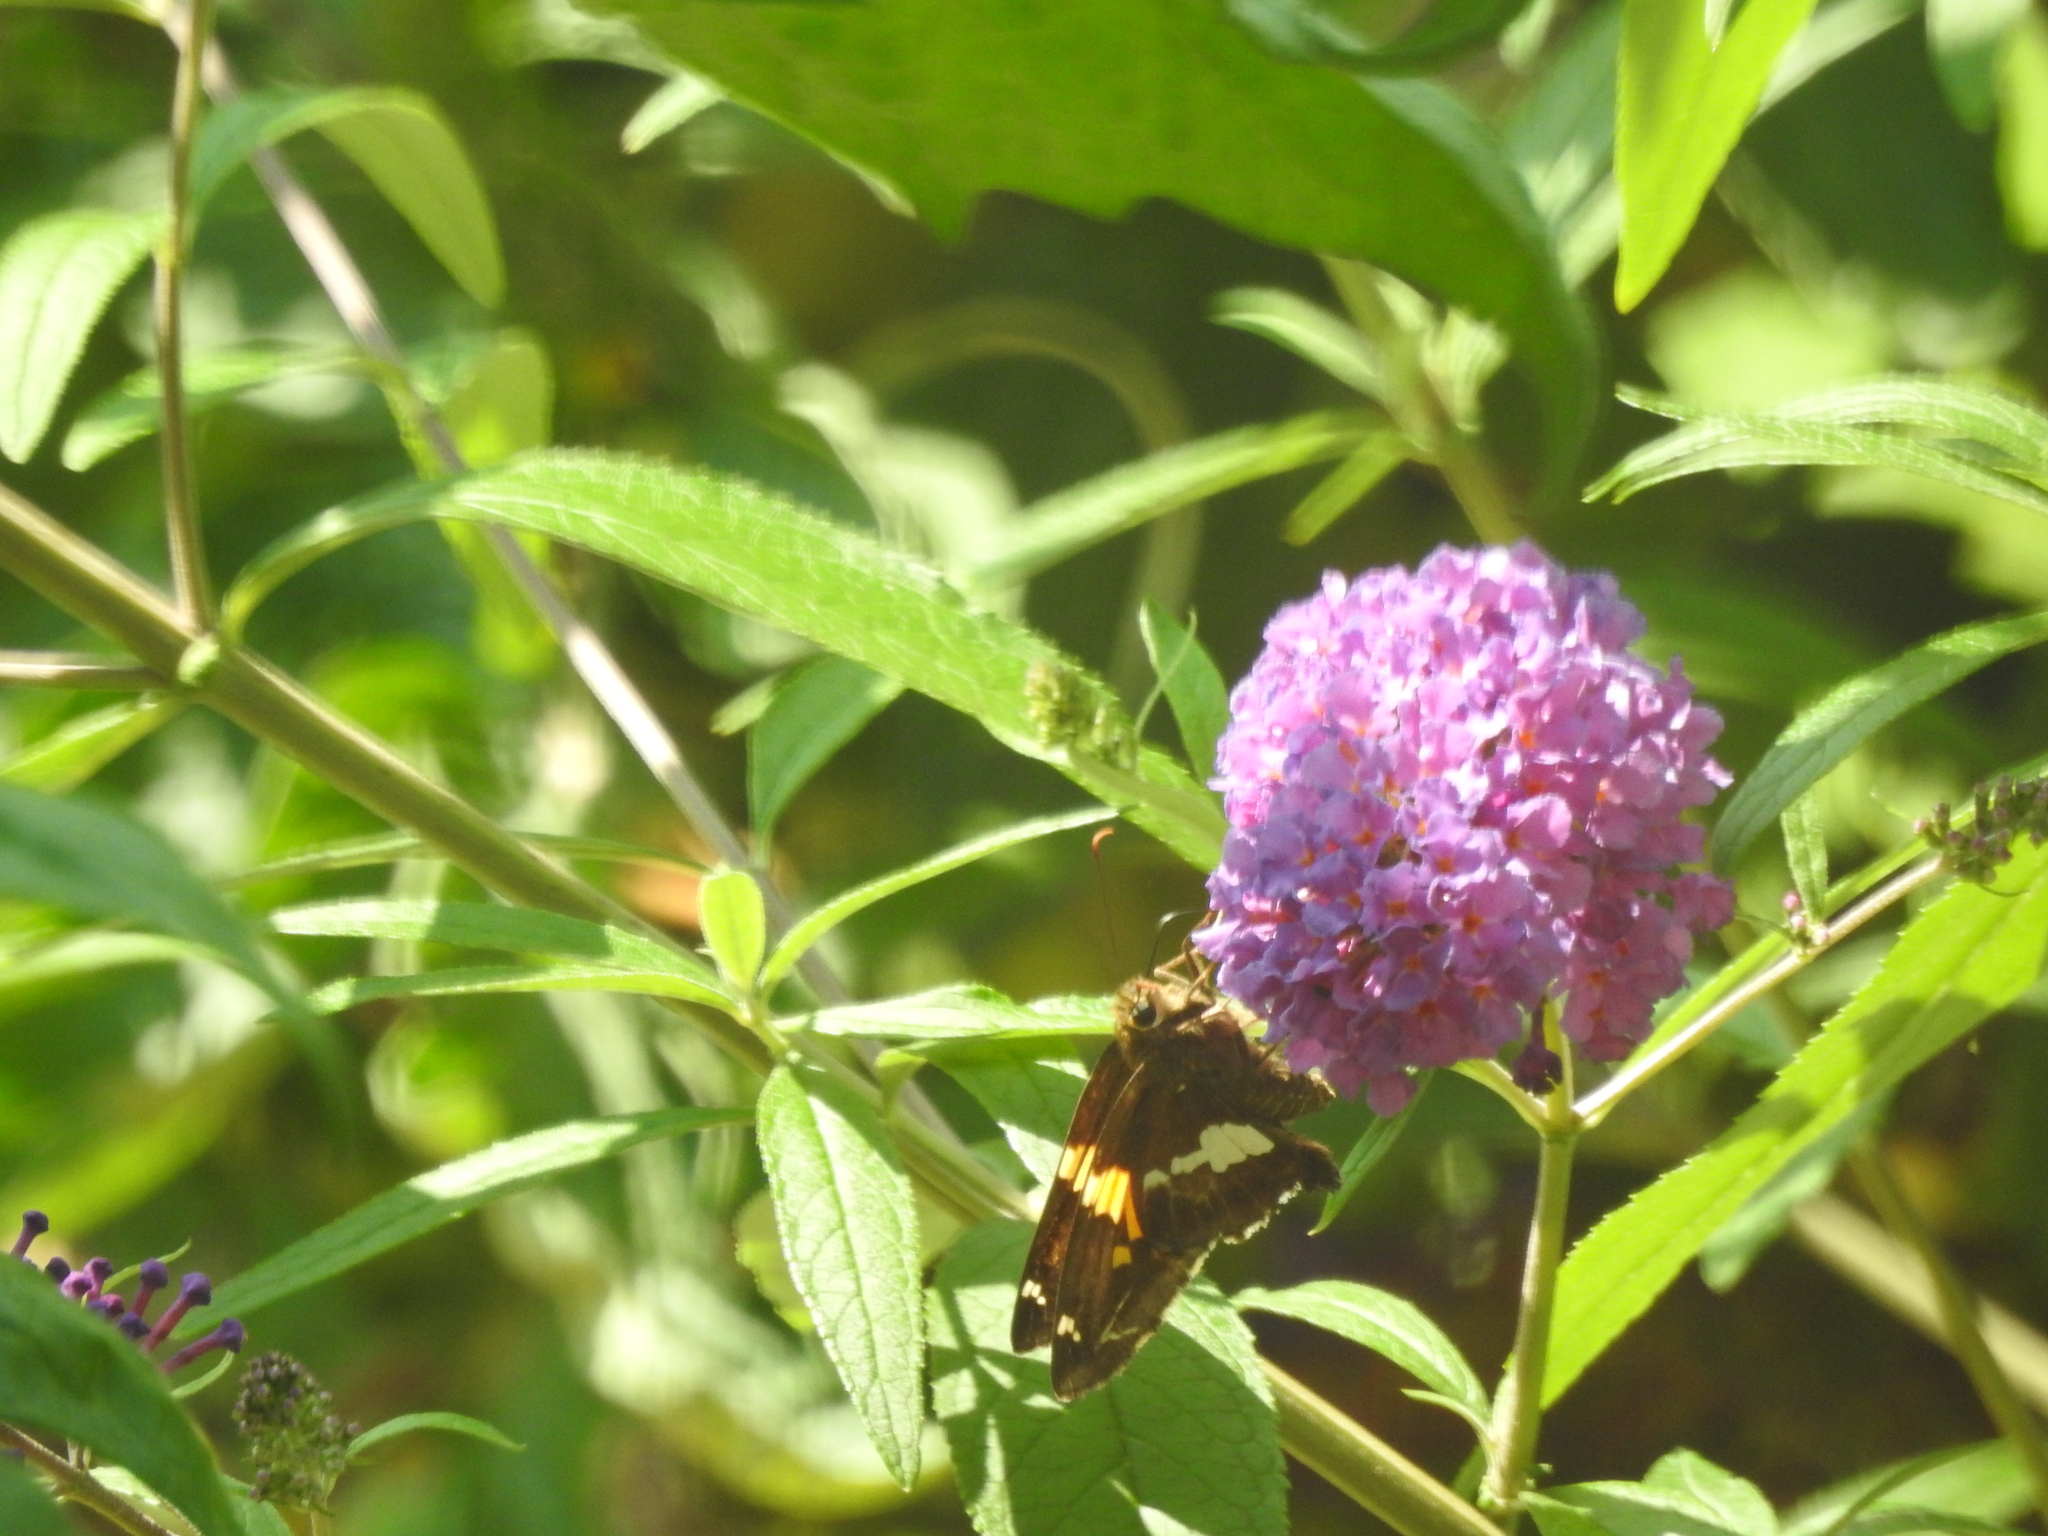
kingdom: Animalia
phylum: Arthropoda
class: Insecta
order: Lepidoptera
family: Hesperiidae
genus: Epargyreus
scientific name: Epargyreus clarus
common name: Silver-spotted skipper
